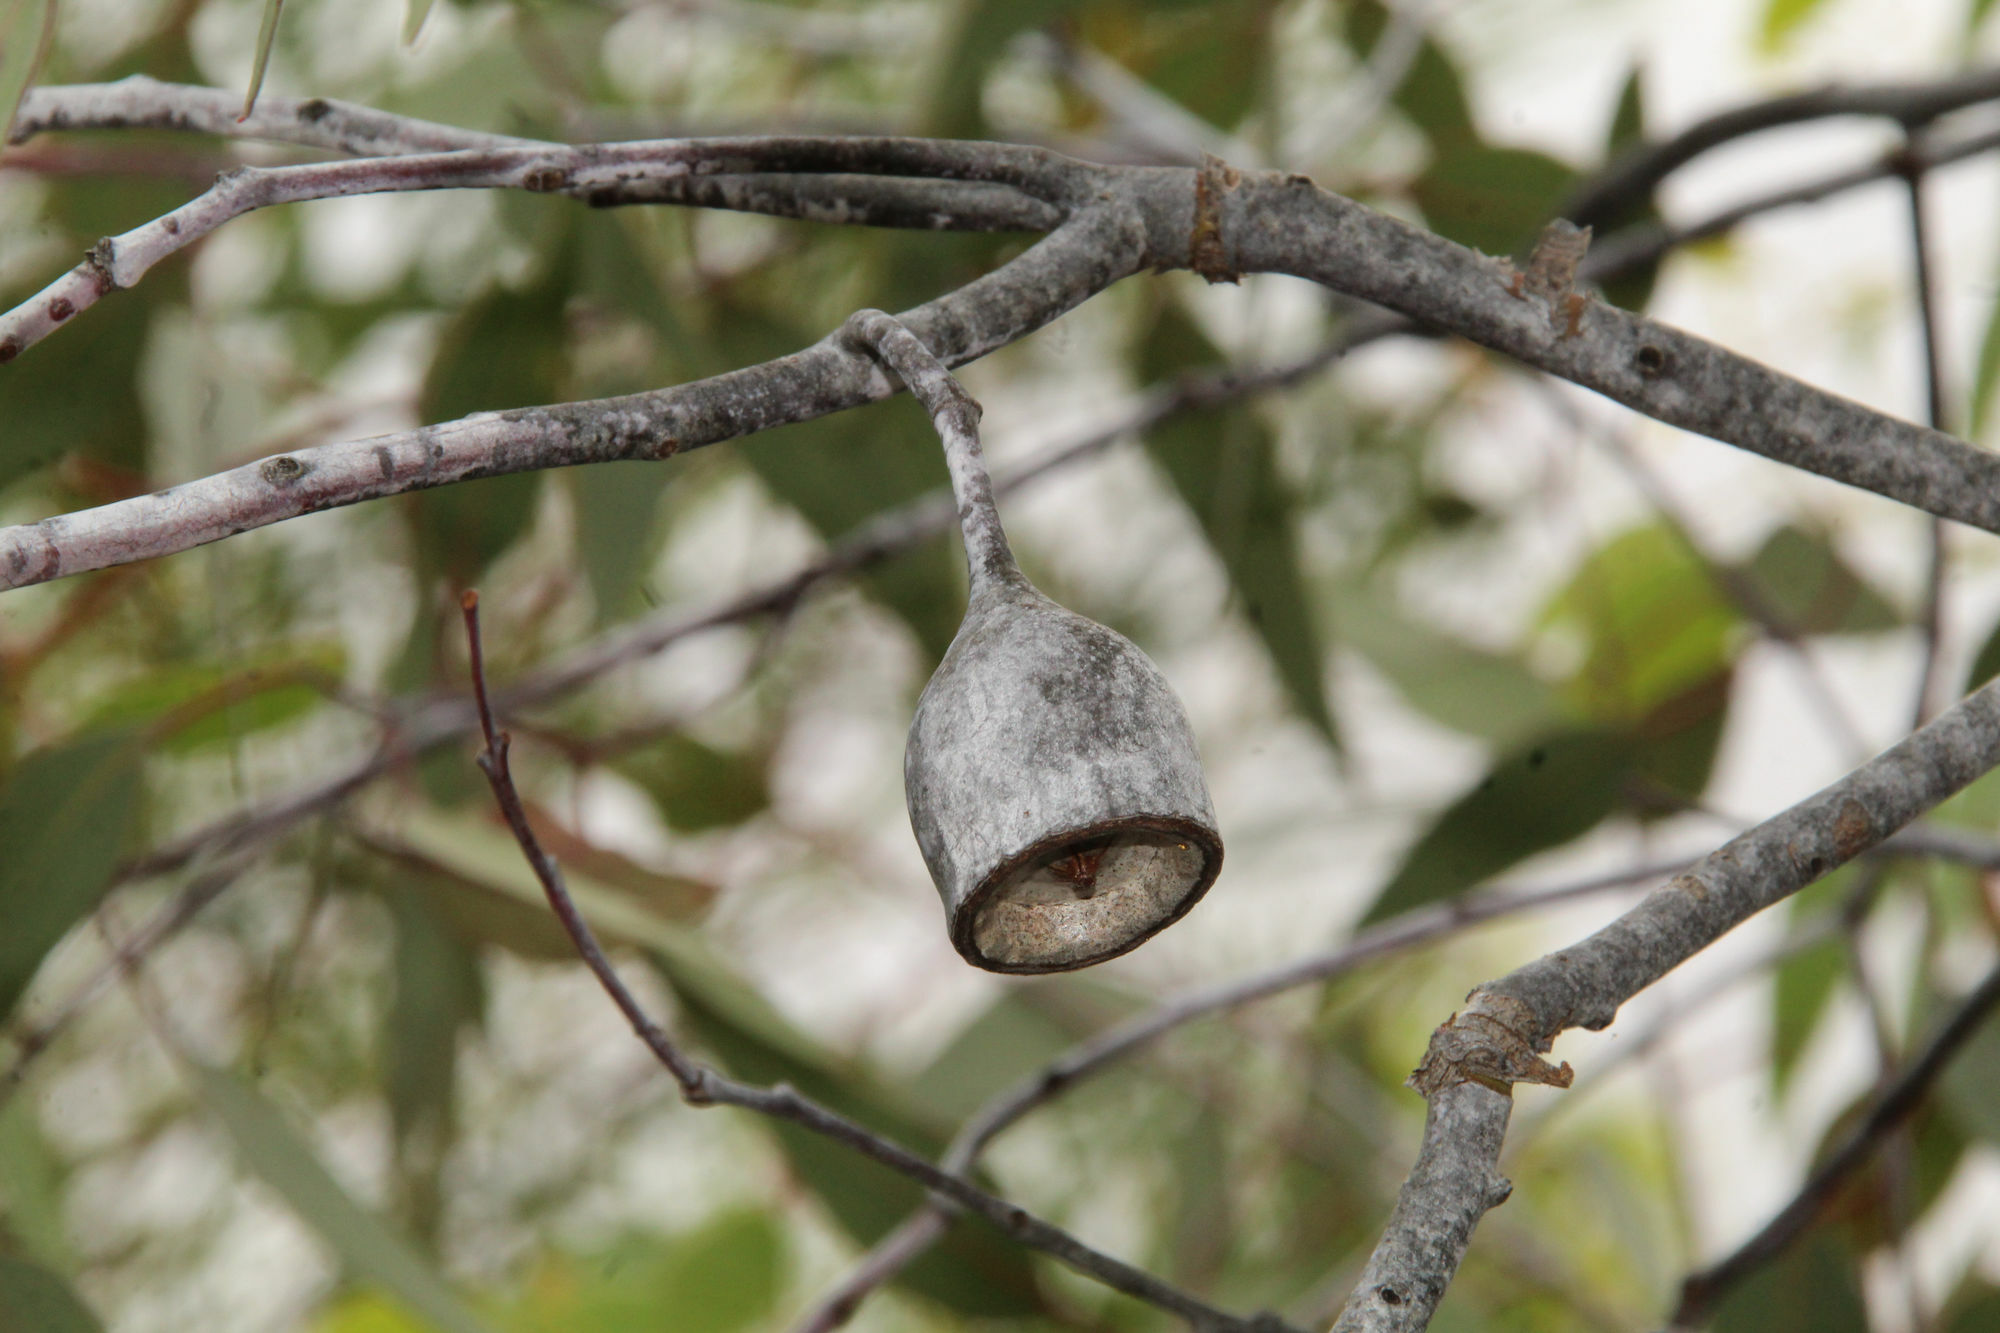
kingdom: Plantae
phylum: Tracheophyta
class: Magnoliopsida
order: Myrtales
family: Myrtaceae
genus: Eucalyptus
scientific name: Eucalyptus caesia
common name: Silver princess
